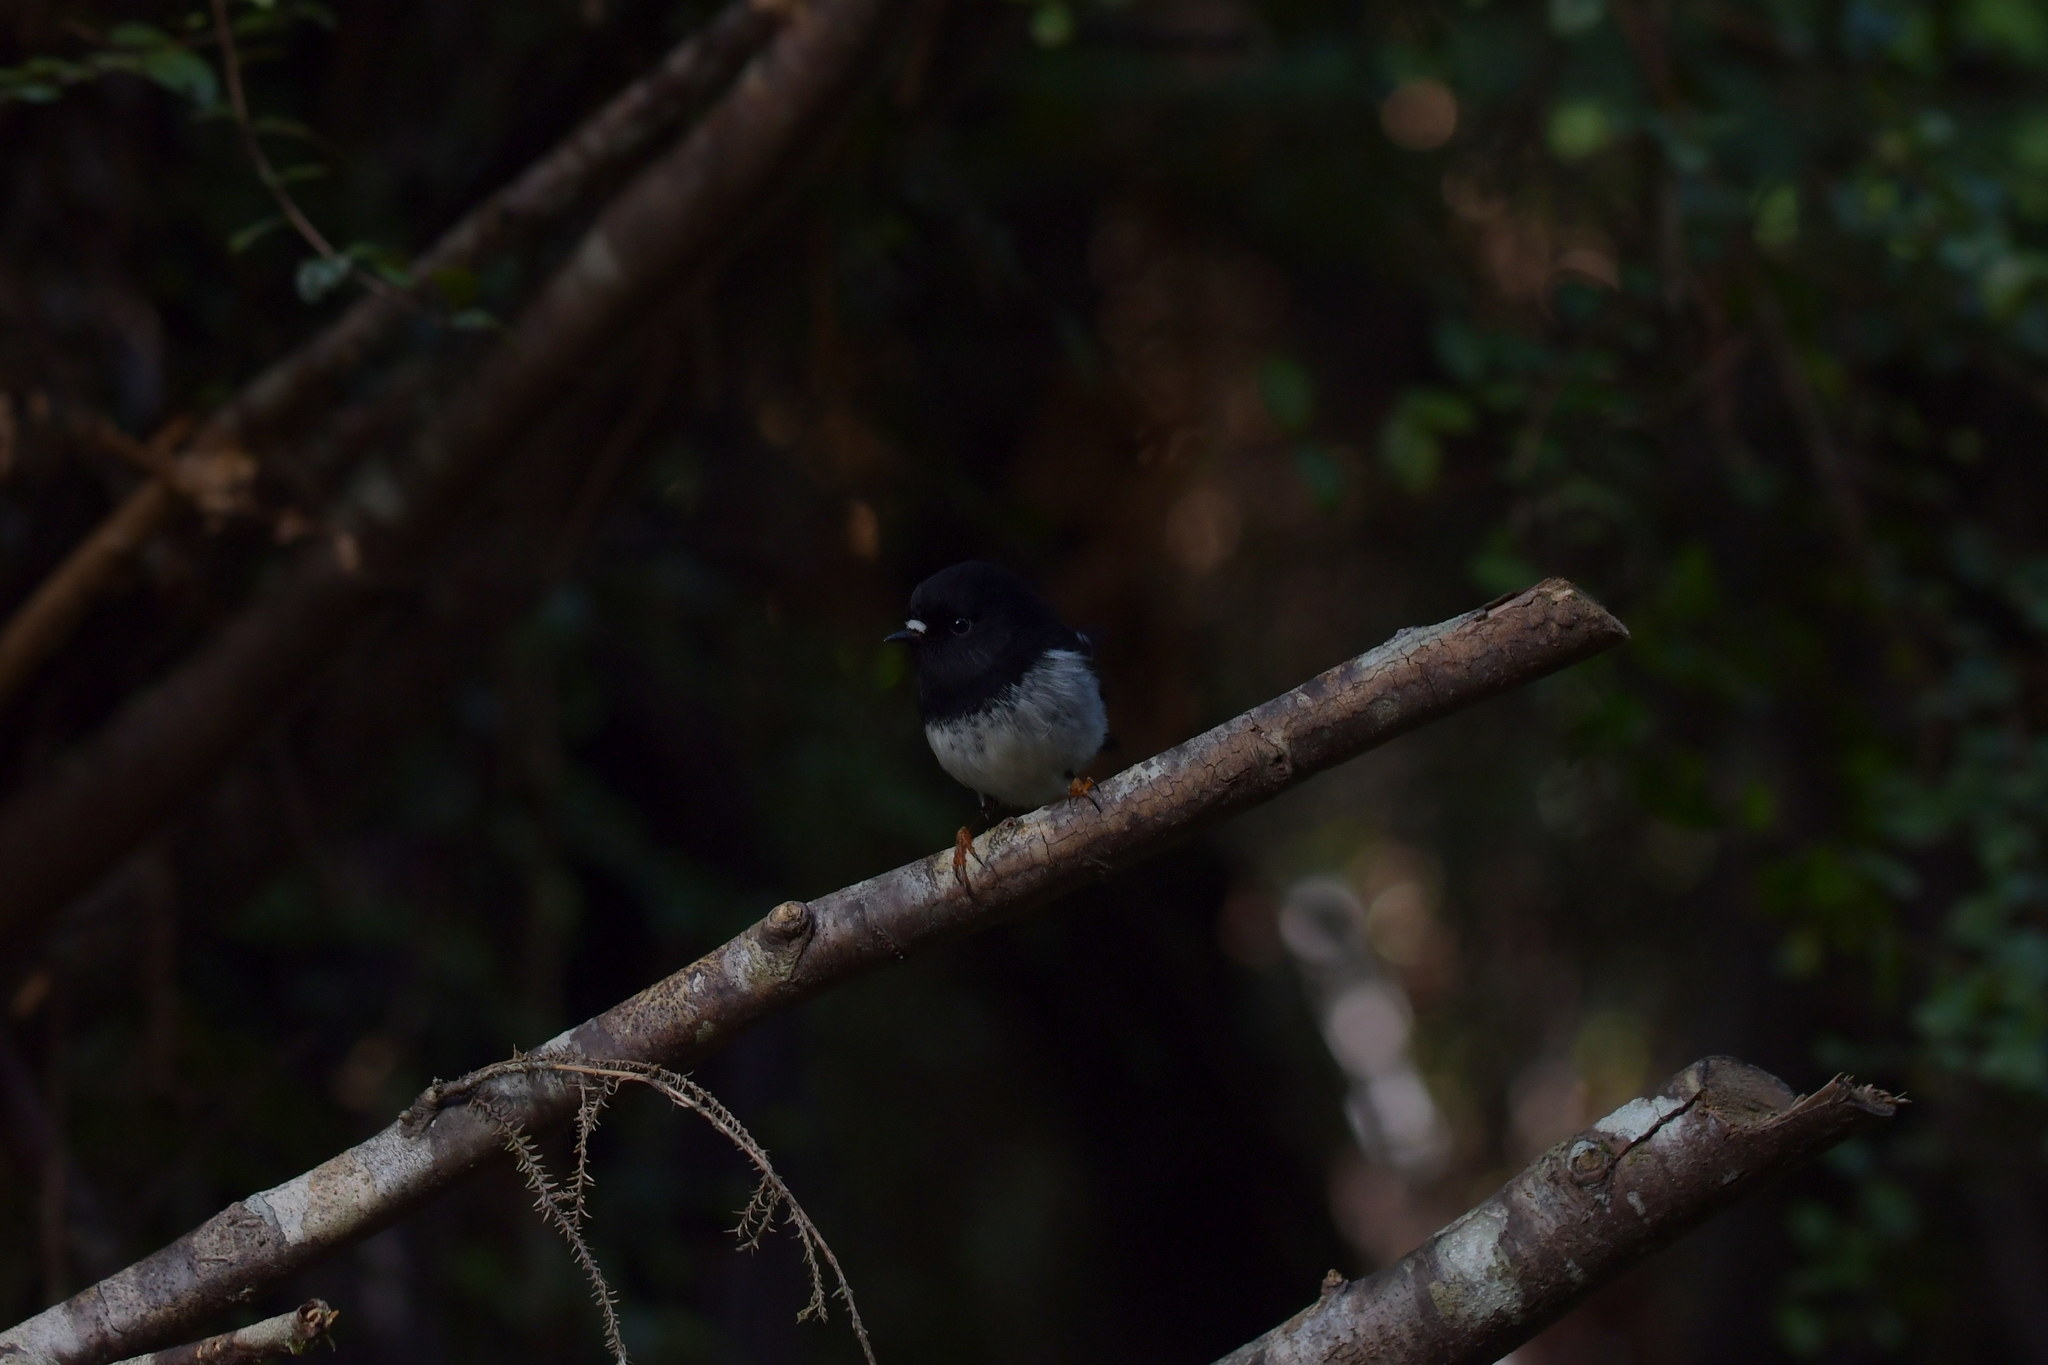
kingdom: Animalia
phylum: Chordata
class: Aves
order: Passeriformes
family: Petroicidae
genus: Petroica
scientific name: Petroica macrocephala
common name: Tomtit
